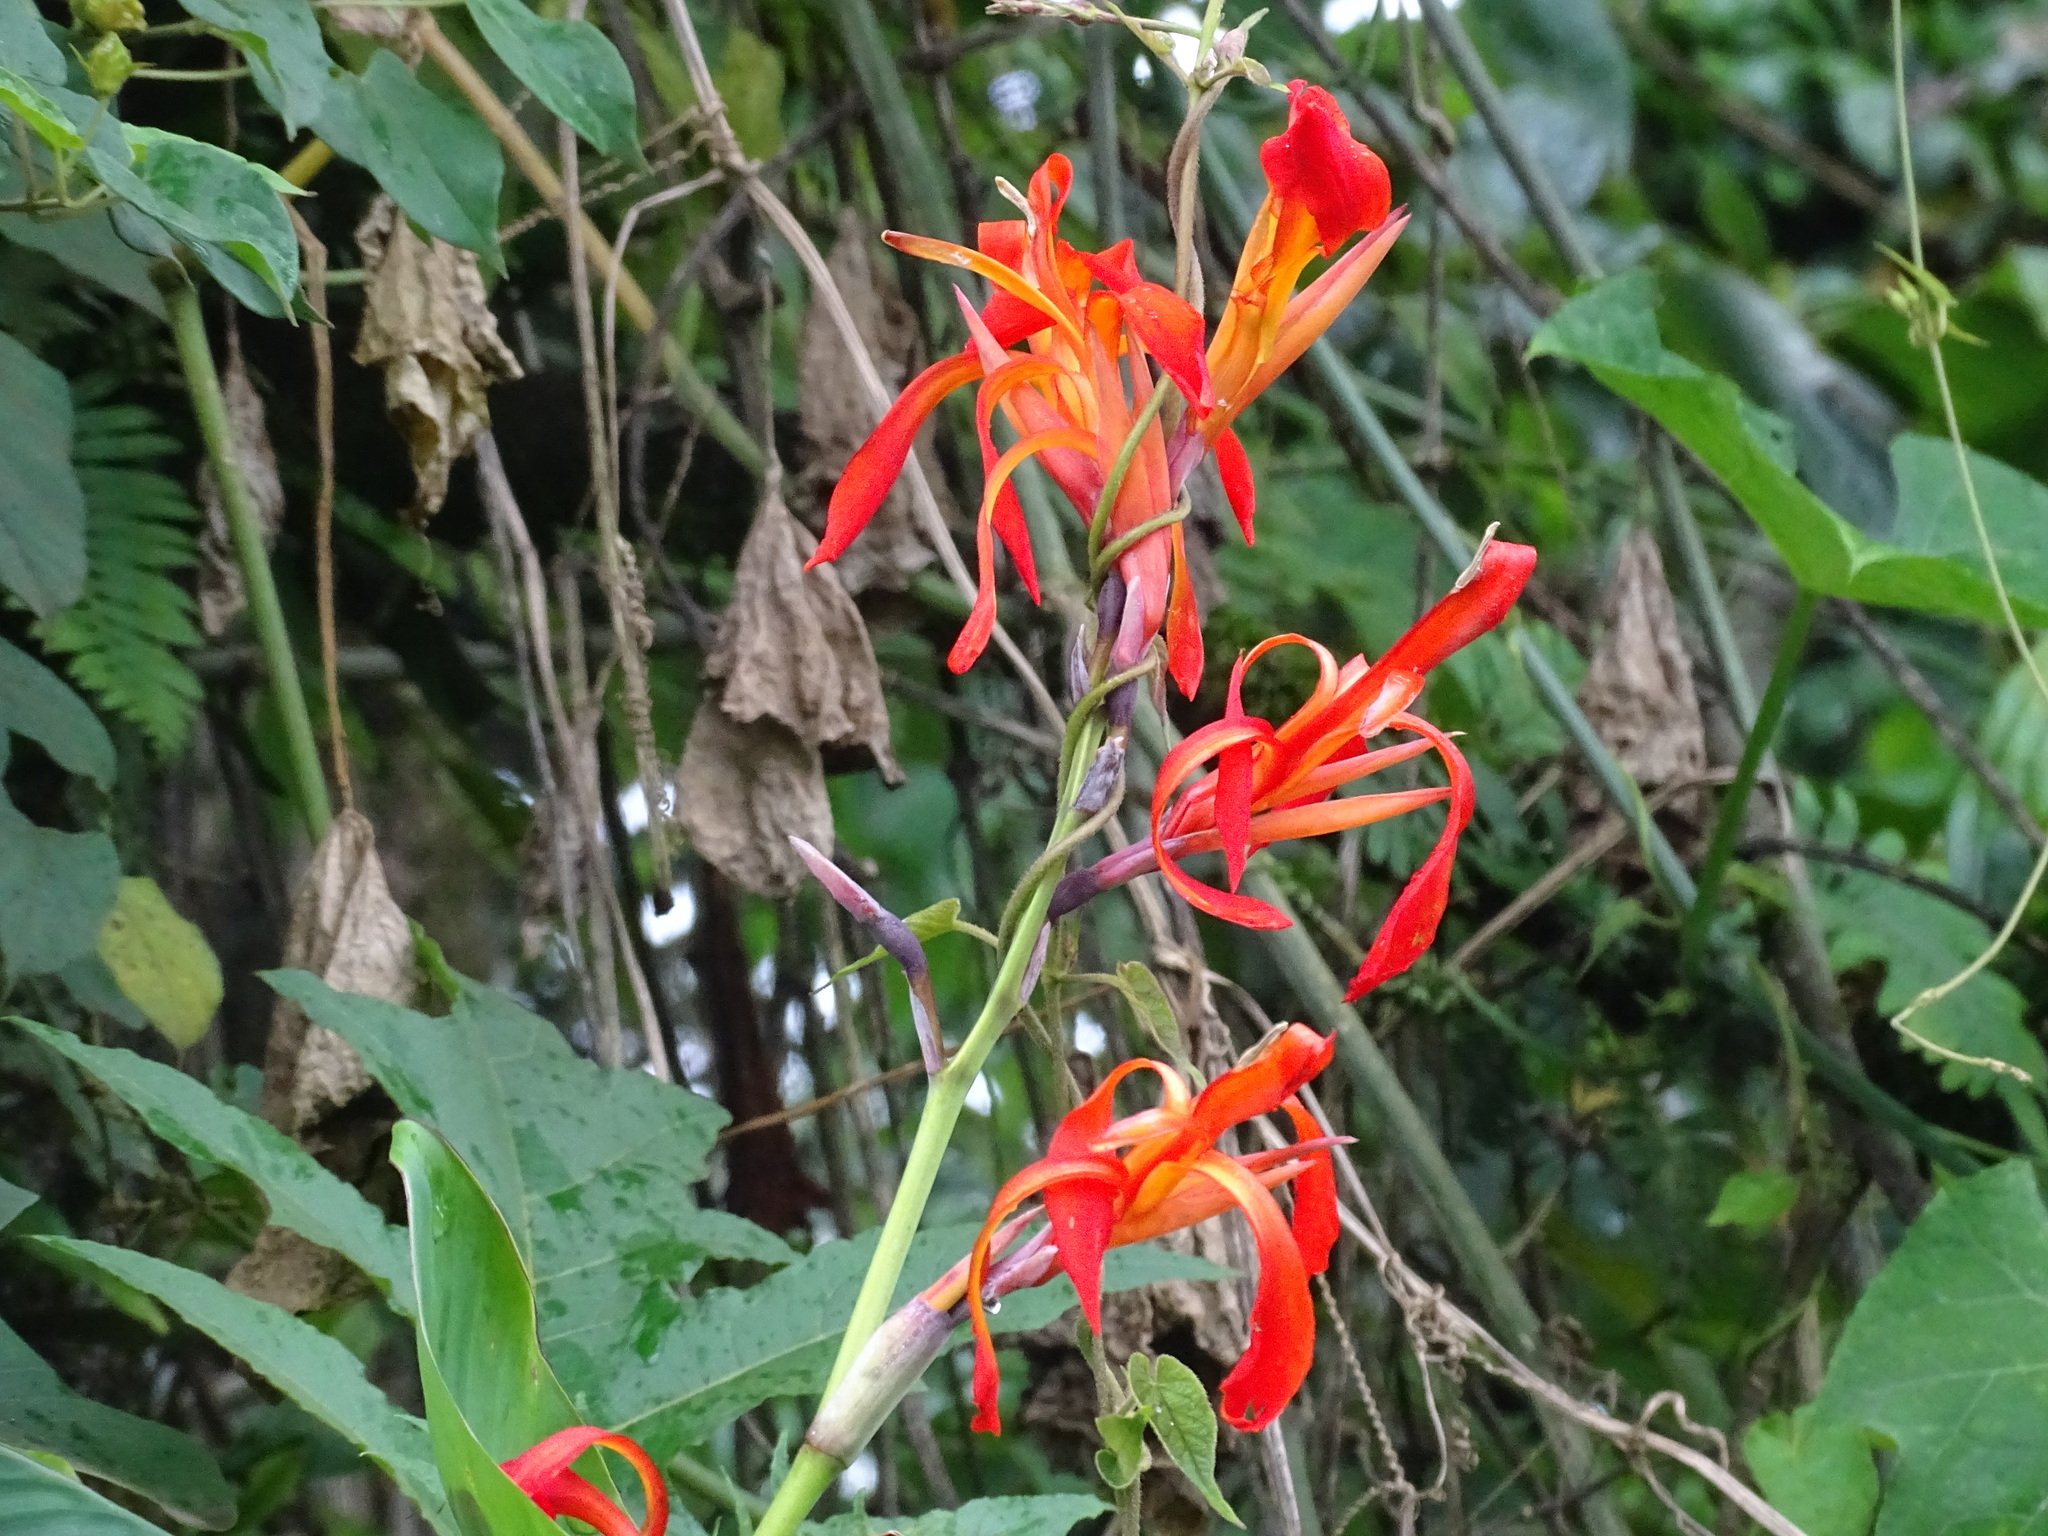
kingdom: Plantae
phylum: Tracheophyta
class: Liliopsida
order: Zingiberales
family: Cannaceae
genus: Canna
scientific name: Canna tuerckheimii
